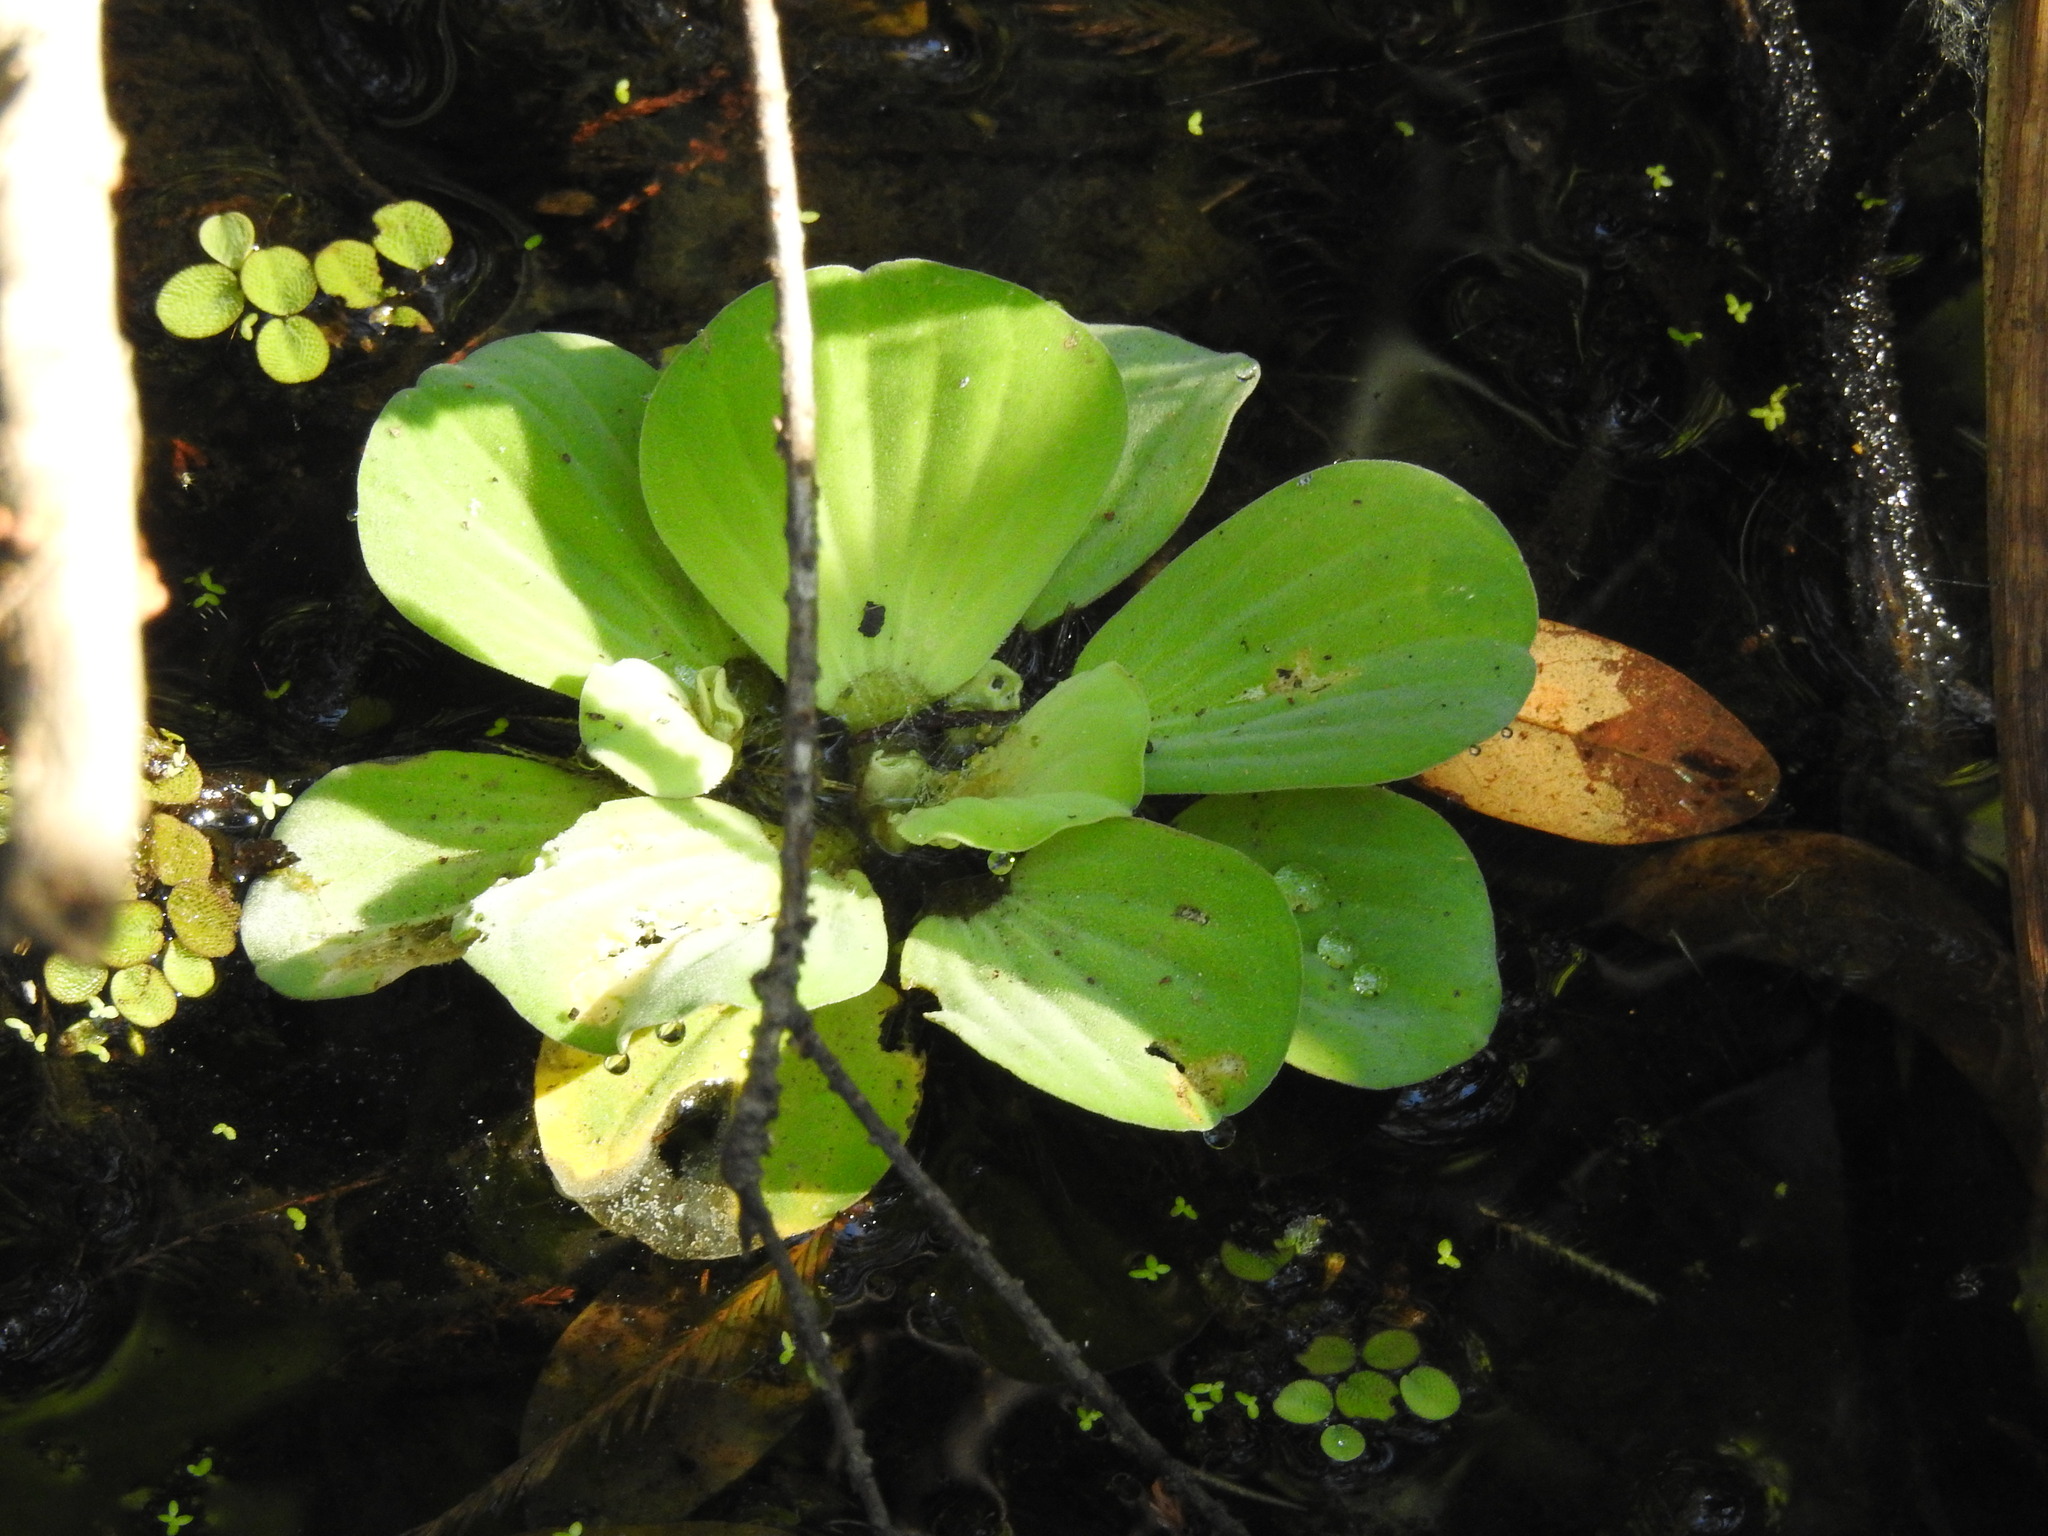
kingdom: Plantae
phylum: Tracheophyta
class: Liliopsida
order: Alismatales
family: Araceae
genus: Pistia
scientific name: Pistia stratiotes
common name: Water lettuce
